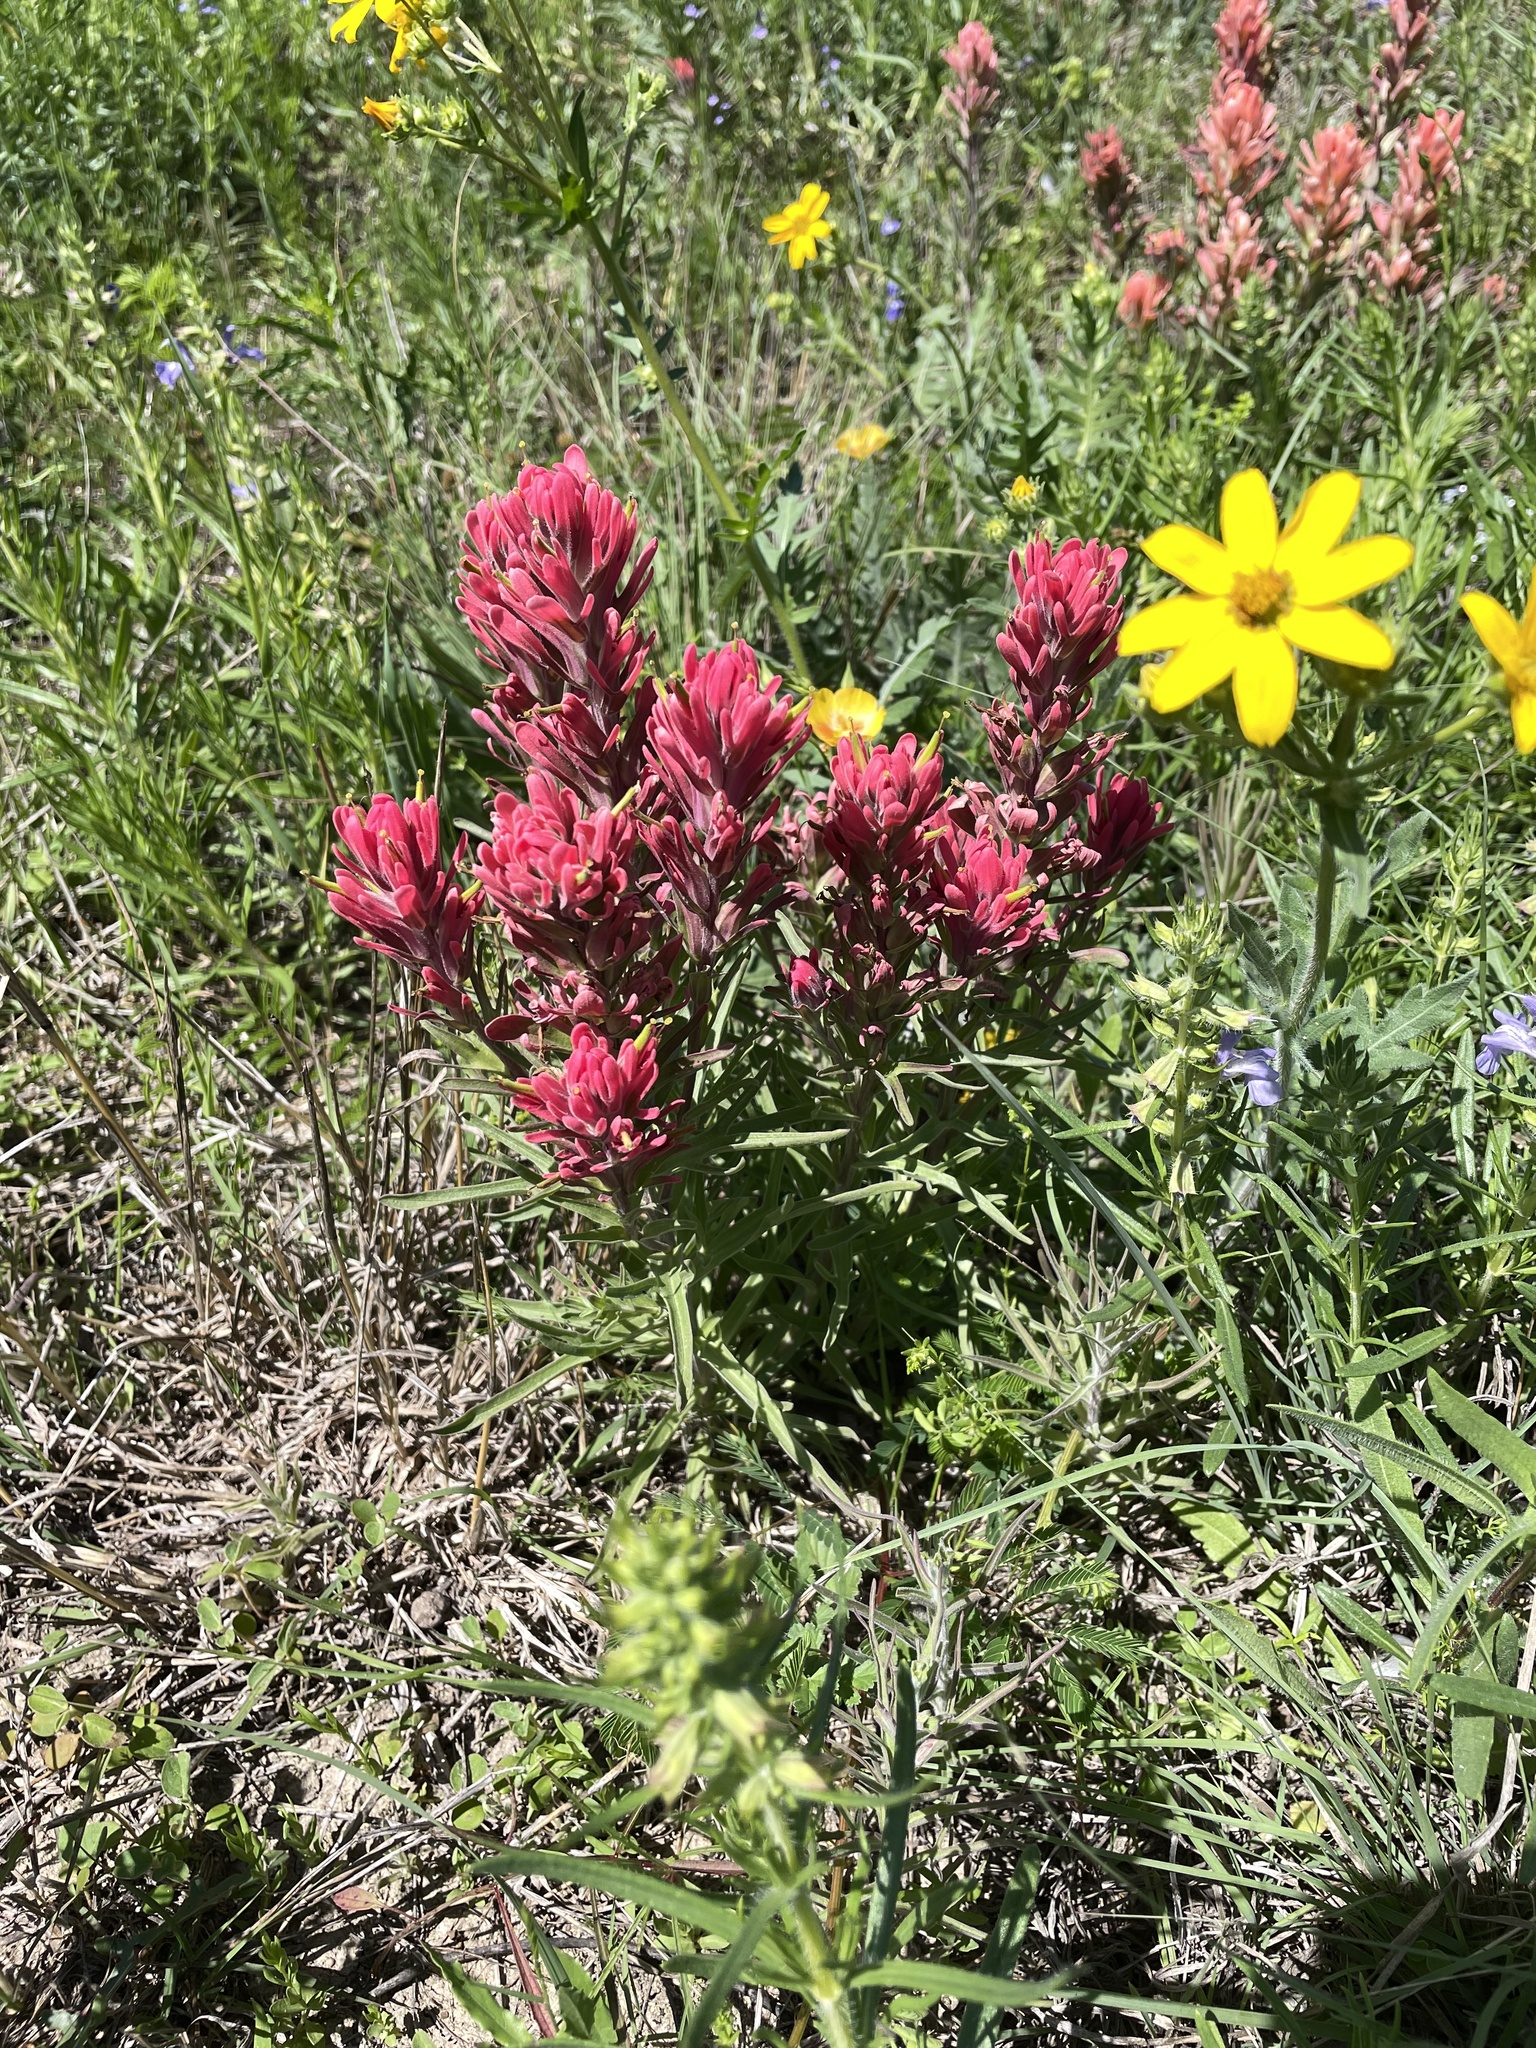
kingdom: Plantae
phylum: Tracheophyta
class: Magnoliopsida
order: Lamiales
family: Orobanchaceae
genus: Castilleja
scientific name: Castilleja purpurea
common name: Plains paintbrush
